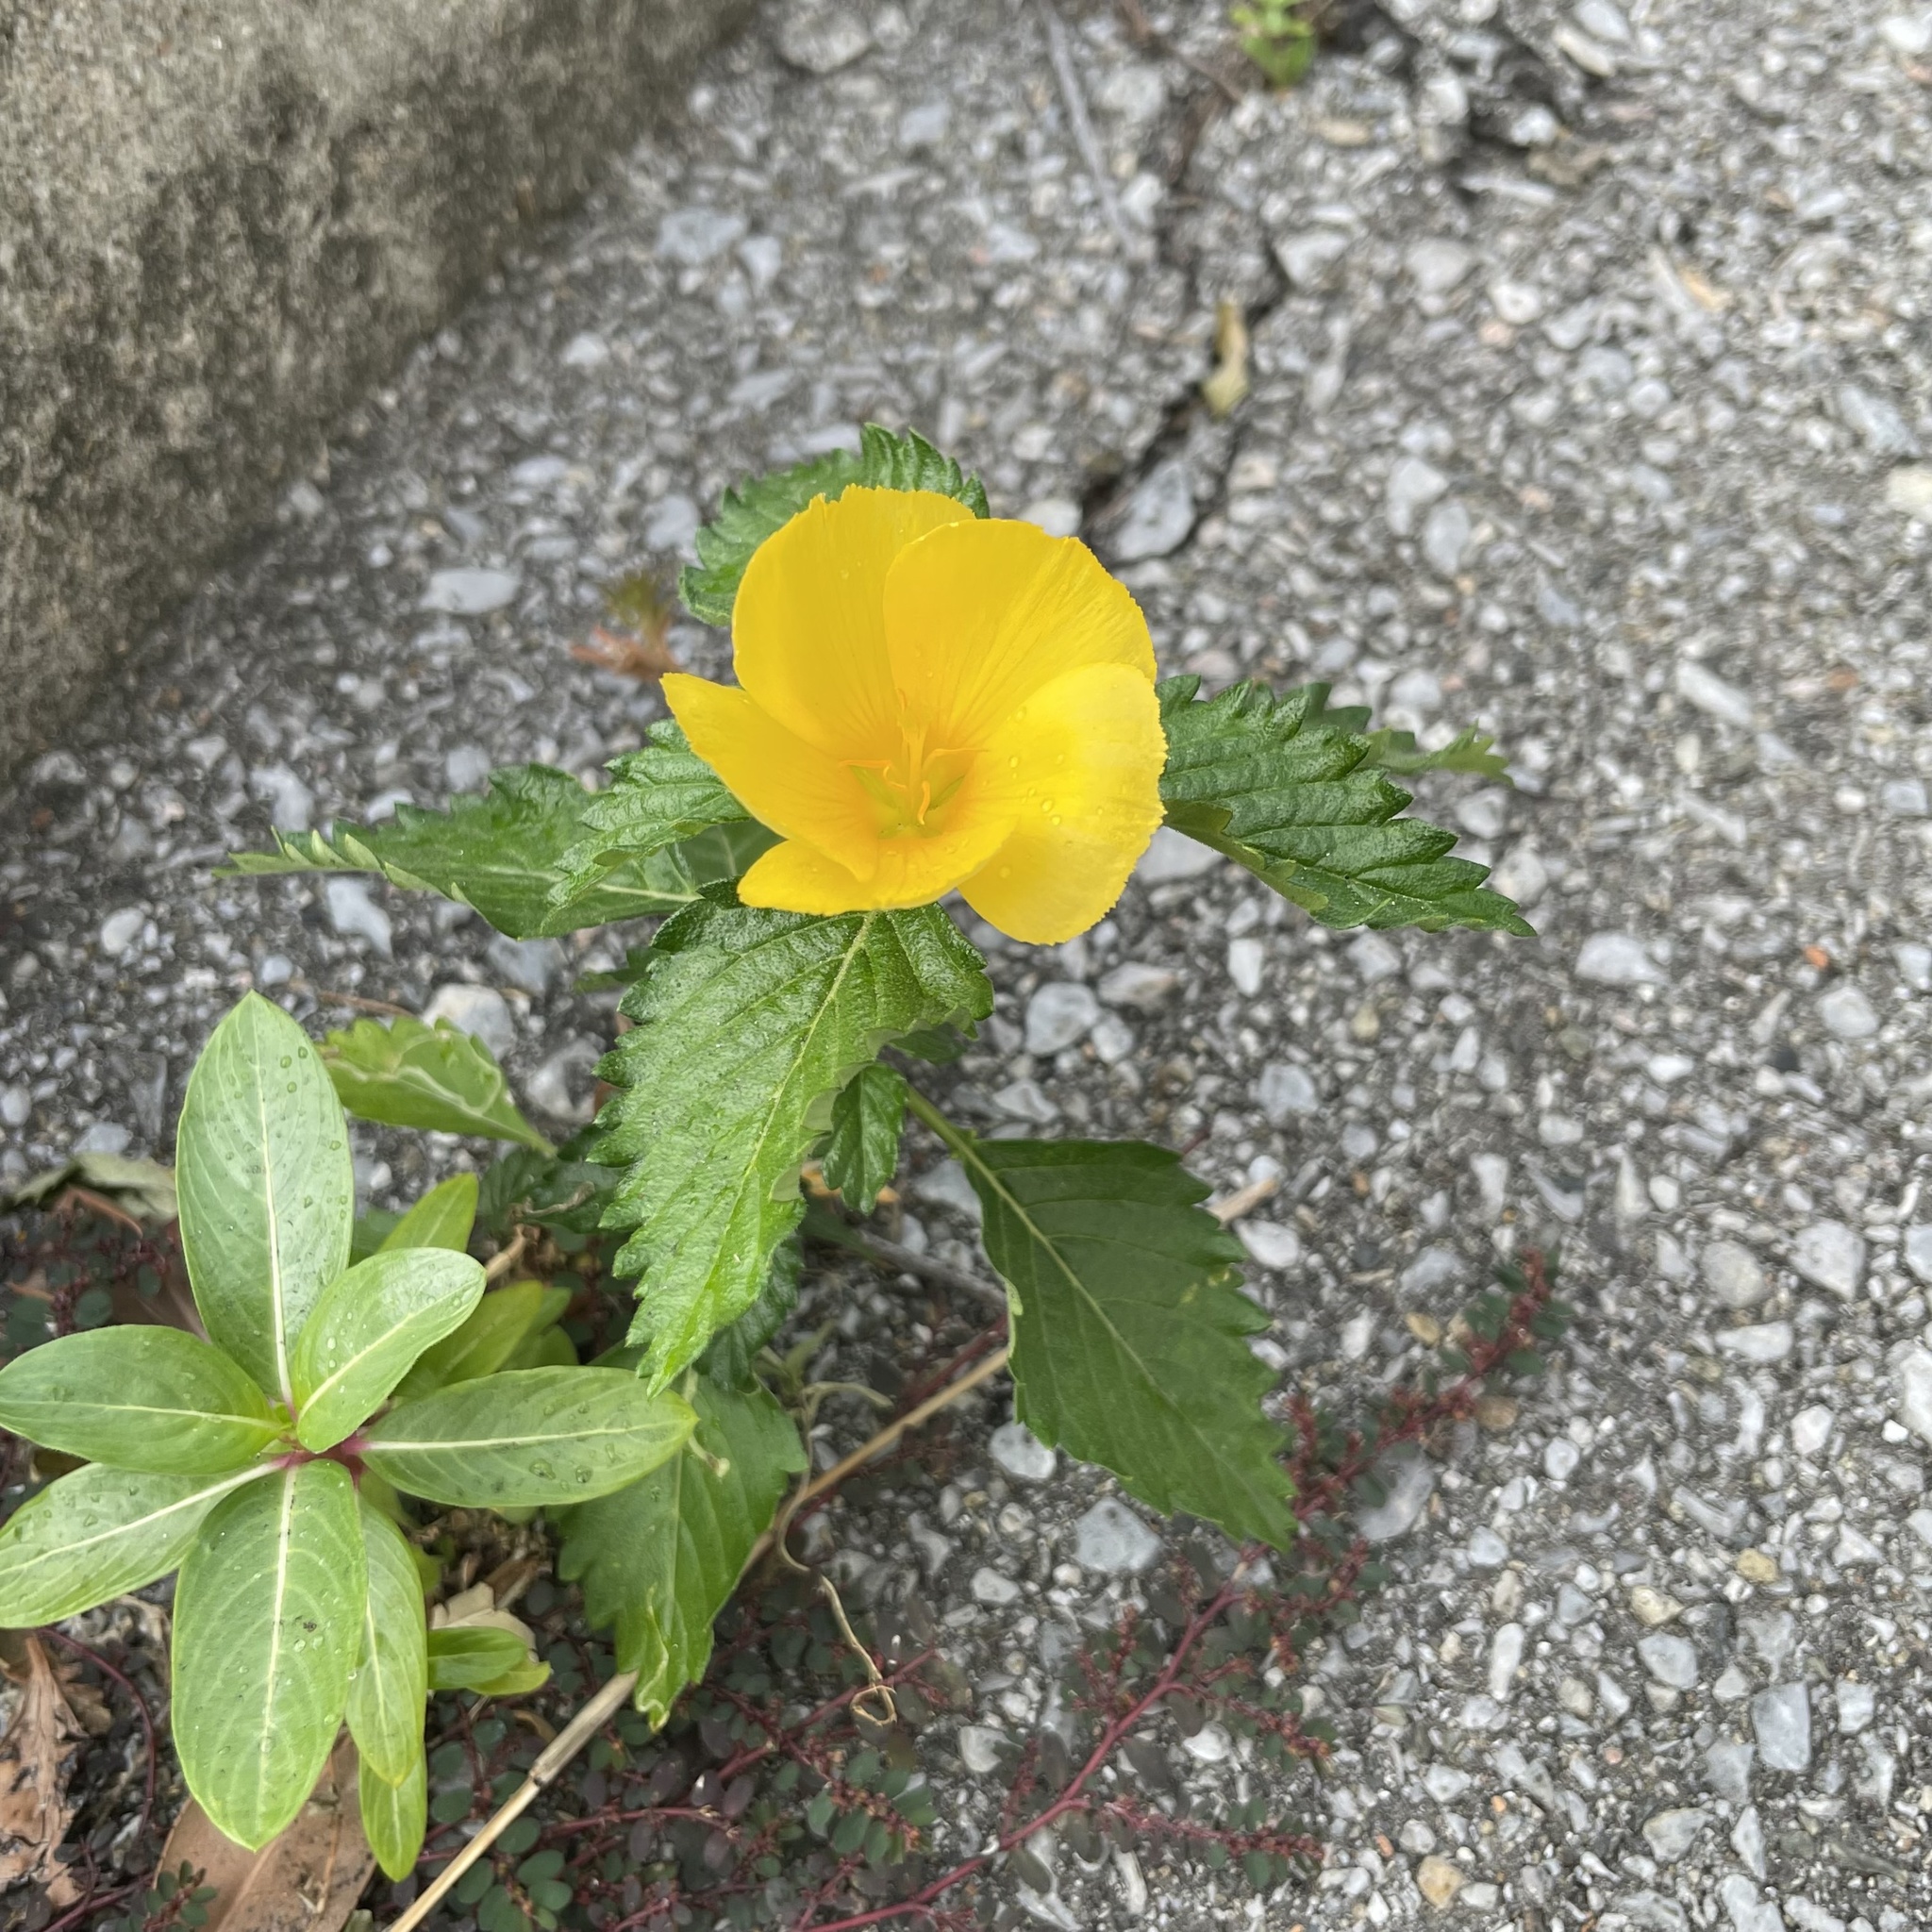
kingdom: Plantae
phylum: Tracheophyta
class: Magnoliopsida
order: Malpighiales
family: Turneraceae
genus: Turnera
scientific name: Turnera ulmifolia
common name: Ramgoat dashalong
